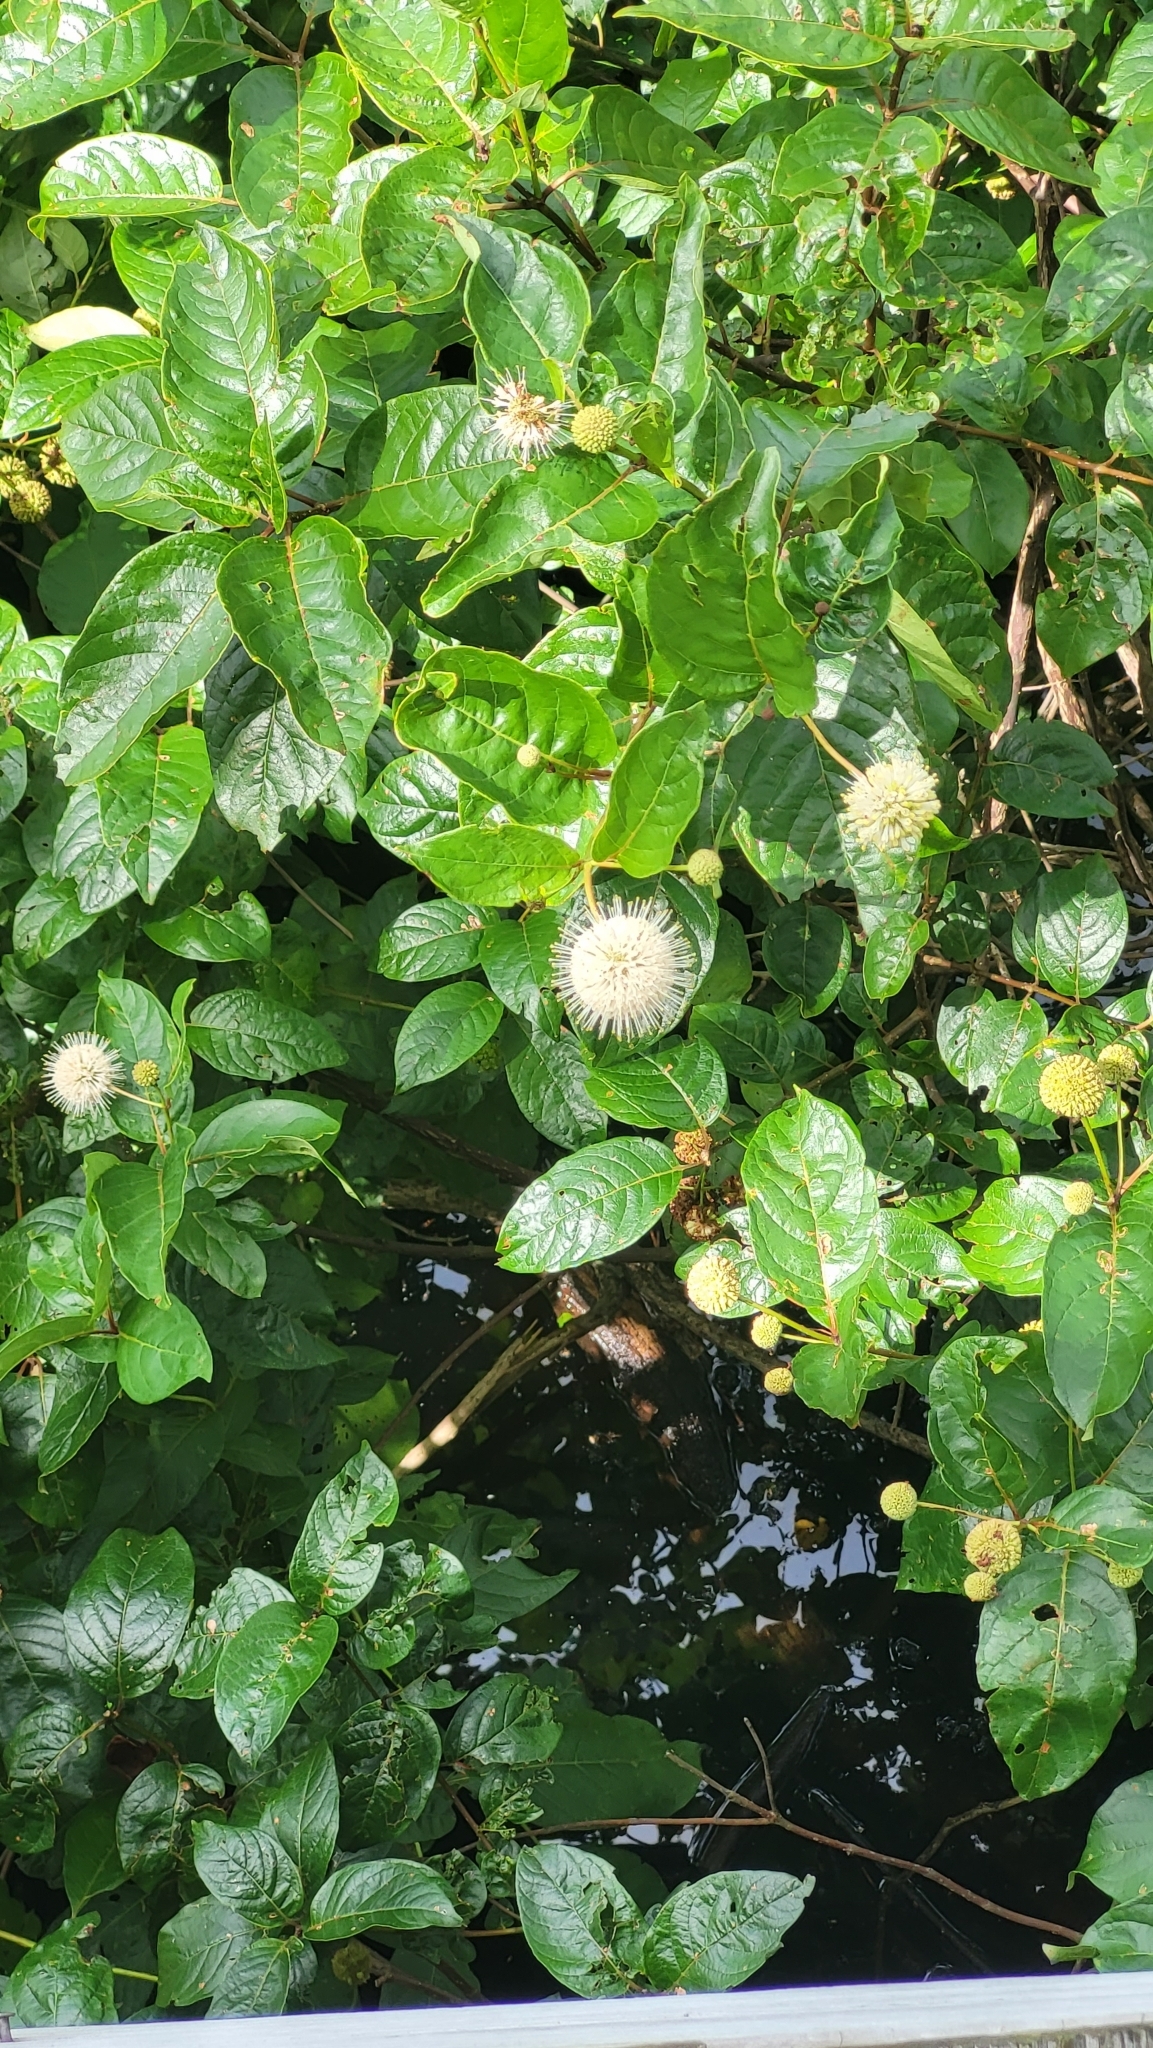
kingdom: Plantae
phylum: Tracheophyta
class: Magnoliopsida
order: Gentianales
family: Rubiaceae
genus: Cephalanthus
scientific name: Cephalanthus occidentalis
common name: Button-willow
